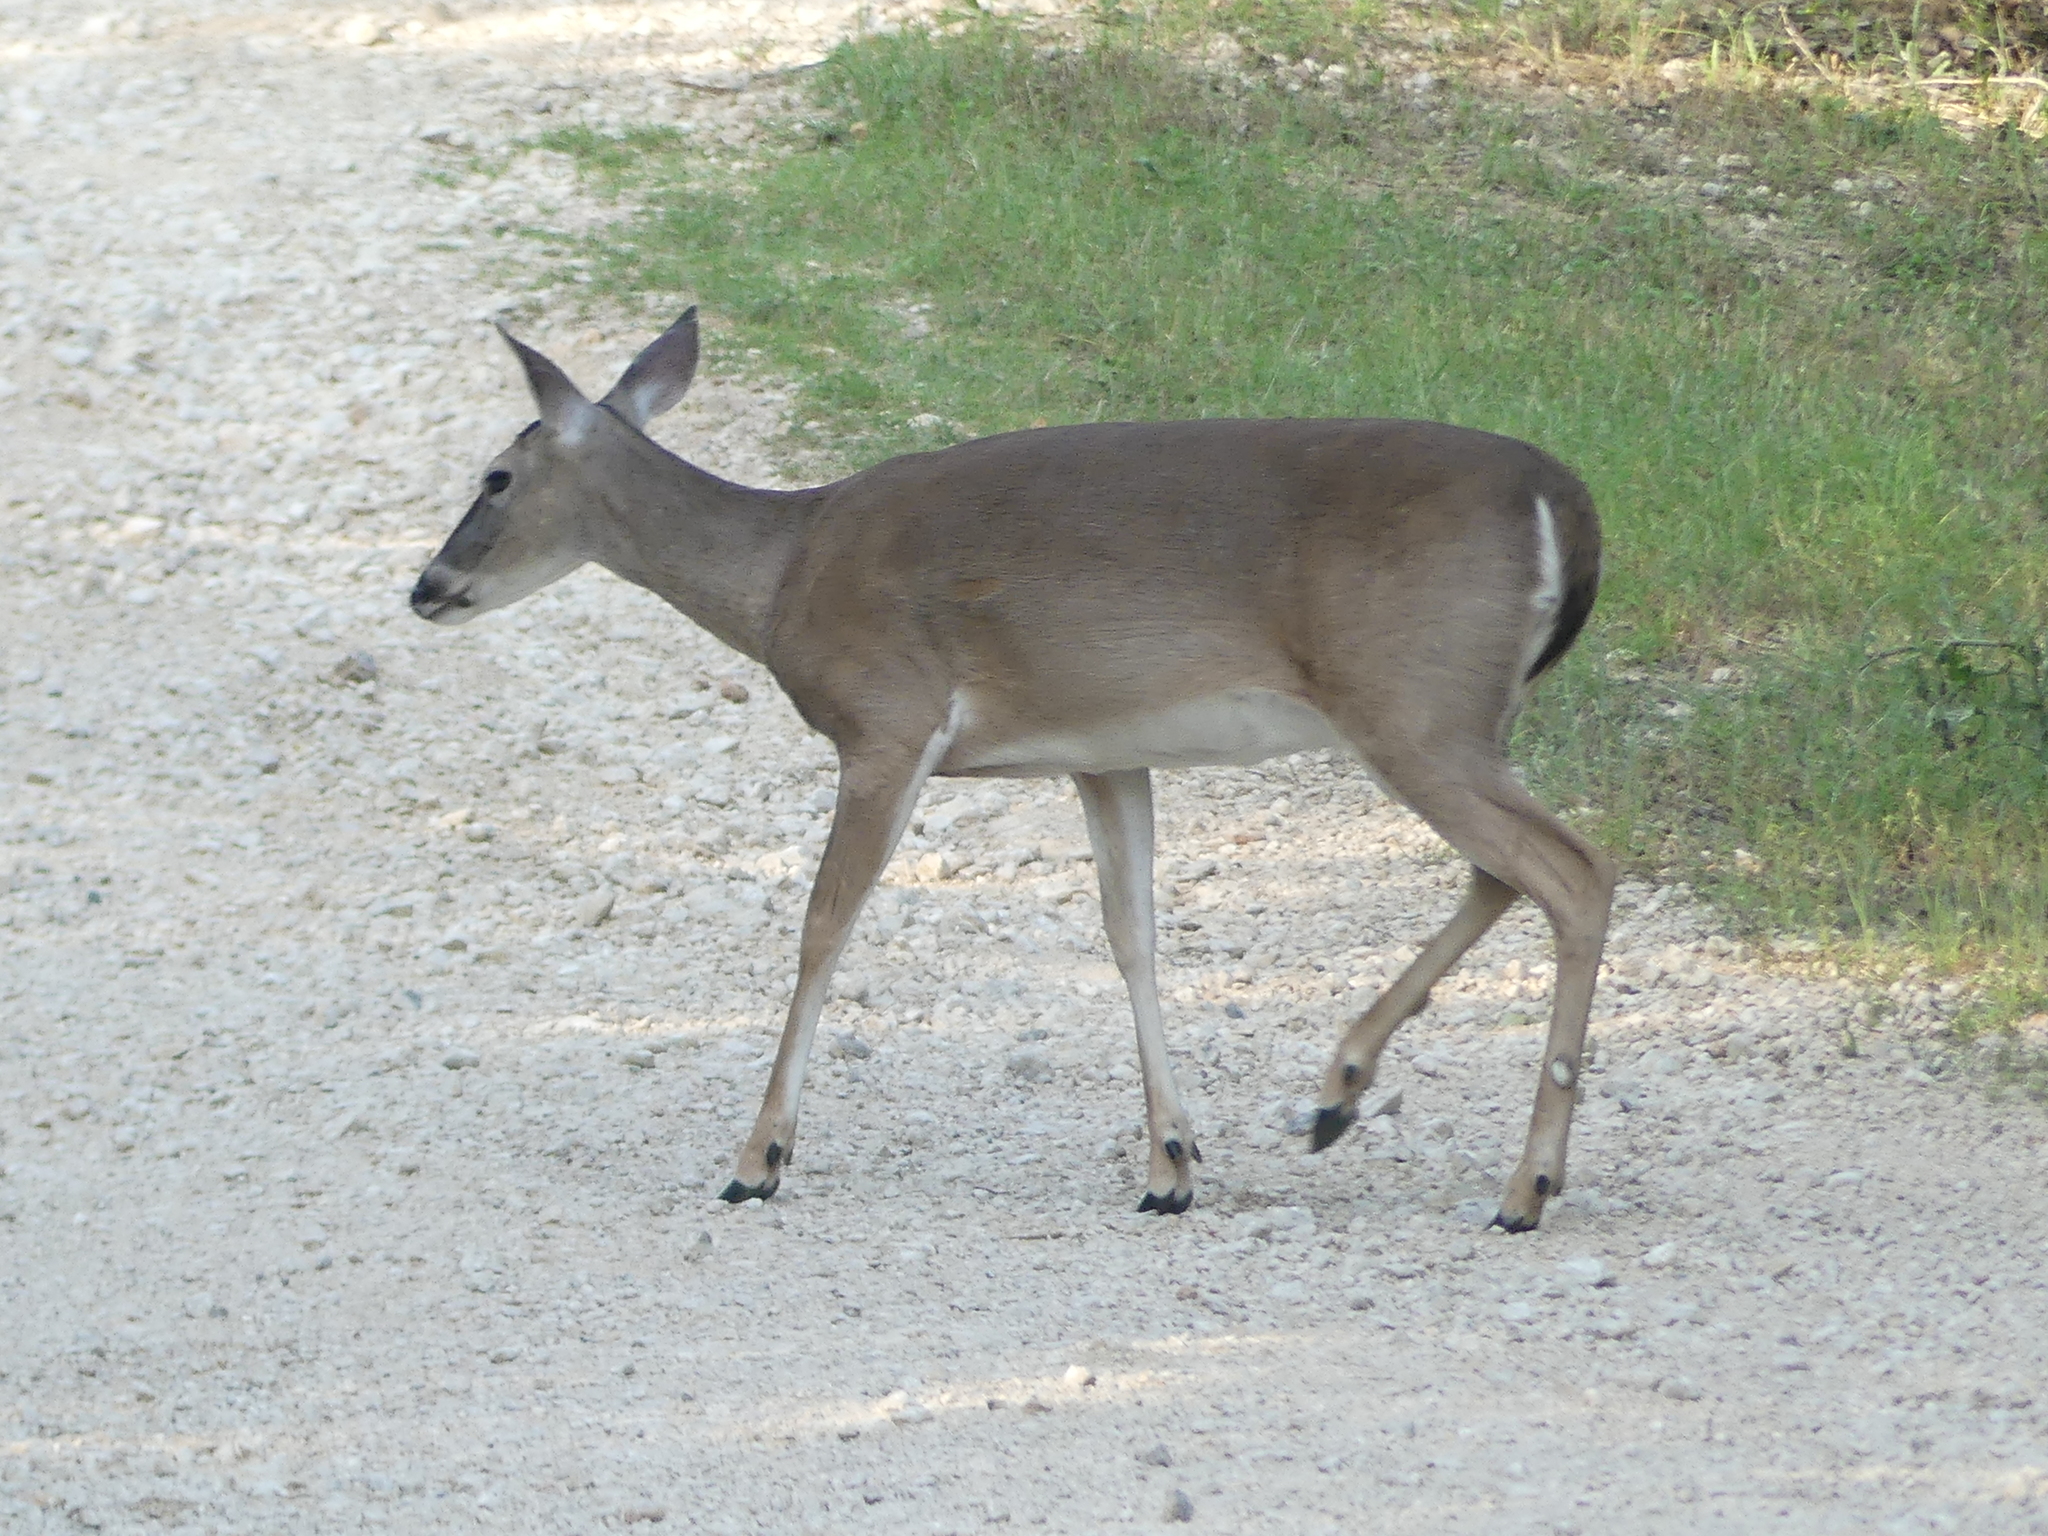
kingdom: Animalia
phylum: Chordata
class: Mammalia
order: Artiodactyla
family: Cervidae
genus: Odocoileus
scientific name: Odocoileus virginianus
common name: White-tailed deer
